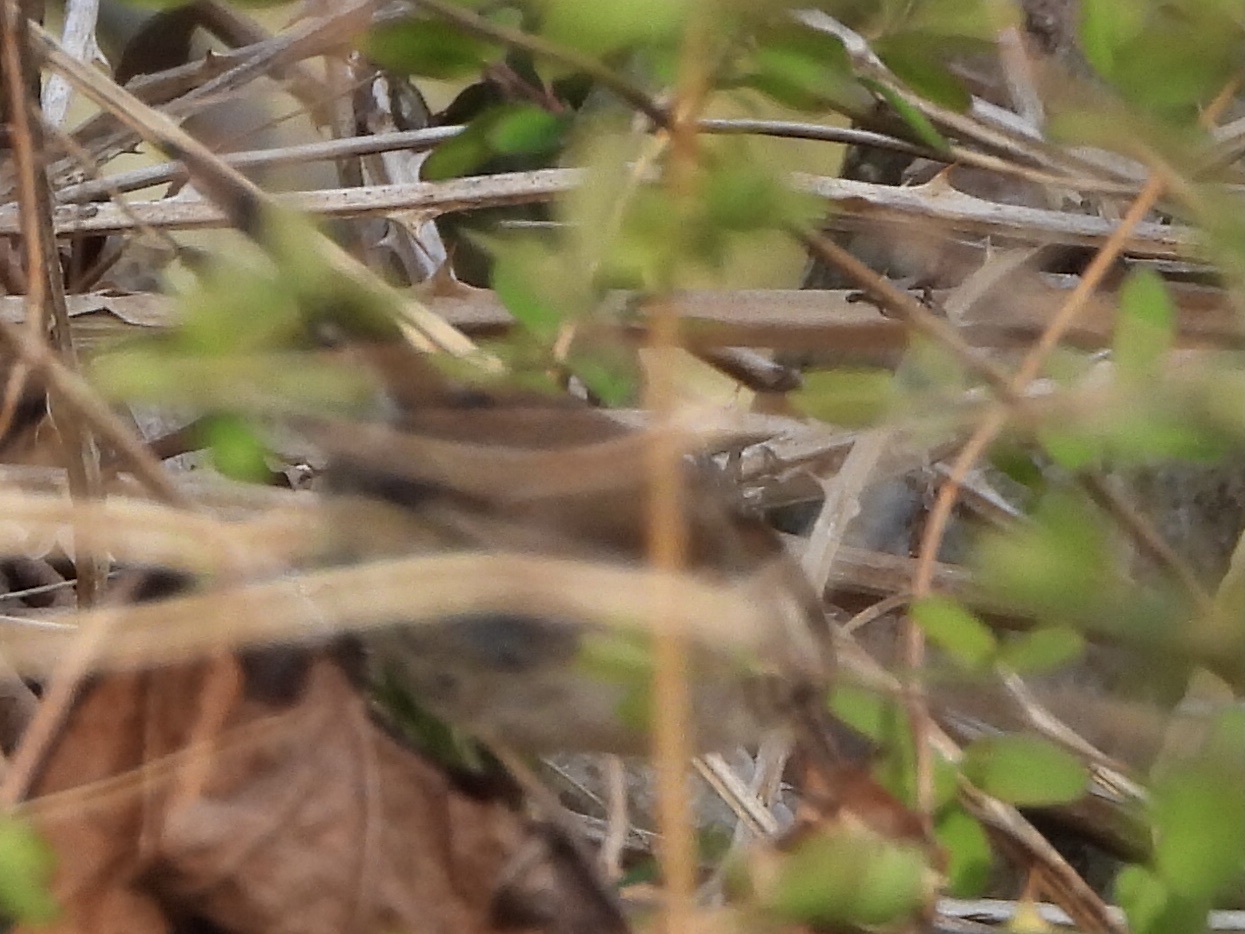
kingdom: Animalia
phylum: Chordata
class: Aves
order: Passeriformes
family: Troglodytidae
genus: Thryomanes
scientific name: Thryomanes bewickii
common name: Bewick's wren
